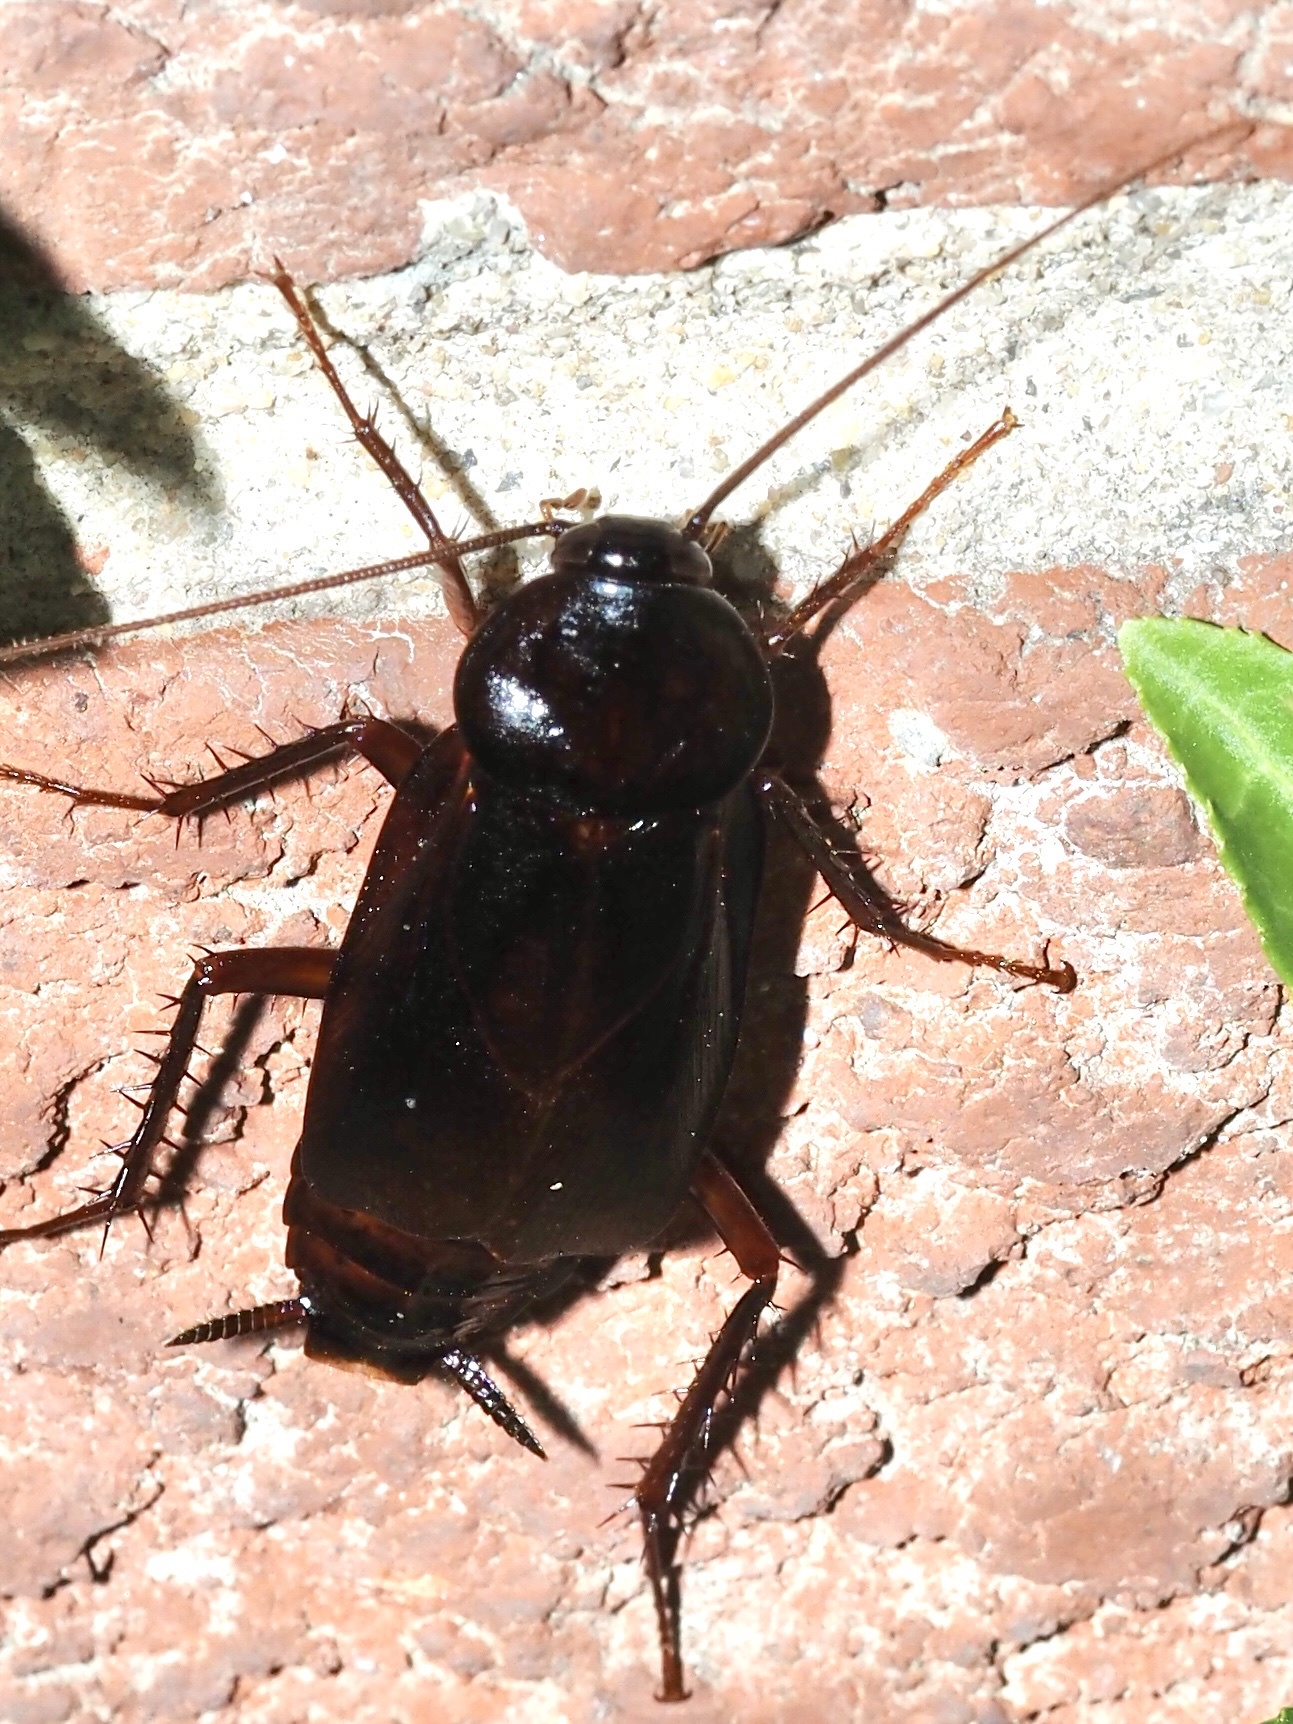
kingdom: Animalia
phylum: Arthropoda
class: Insecta
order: Blattodea
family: Blattidae
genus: Blatta
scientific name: Blatta orientalis
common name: Oriental cockroach
